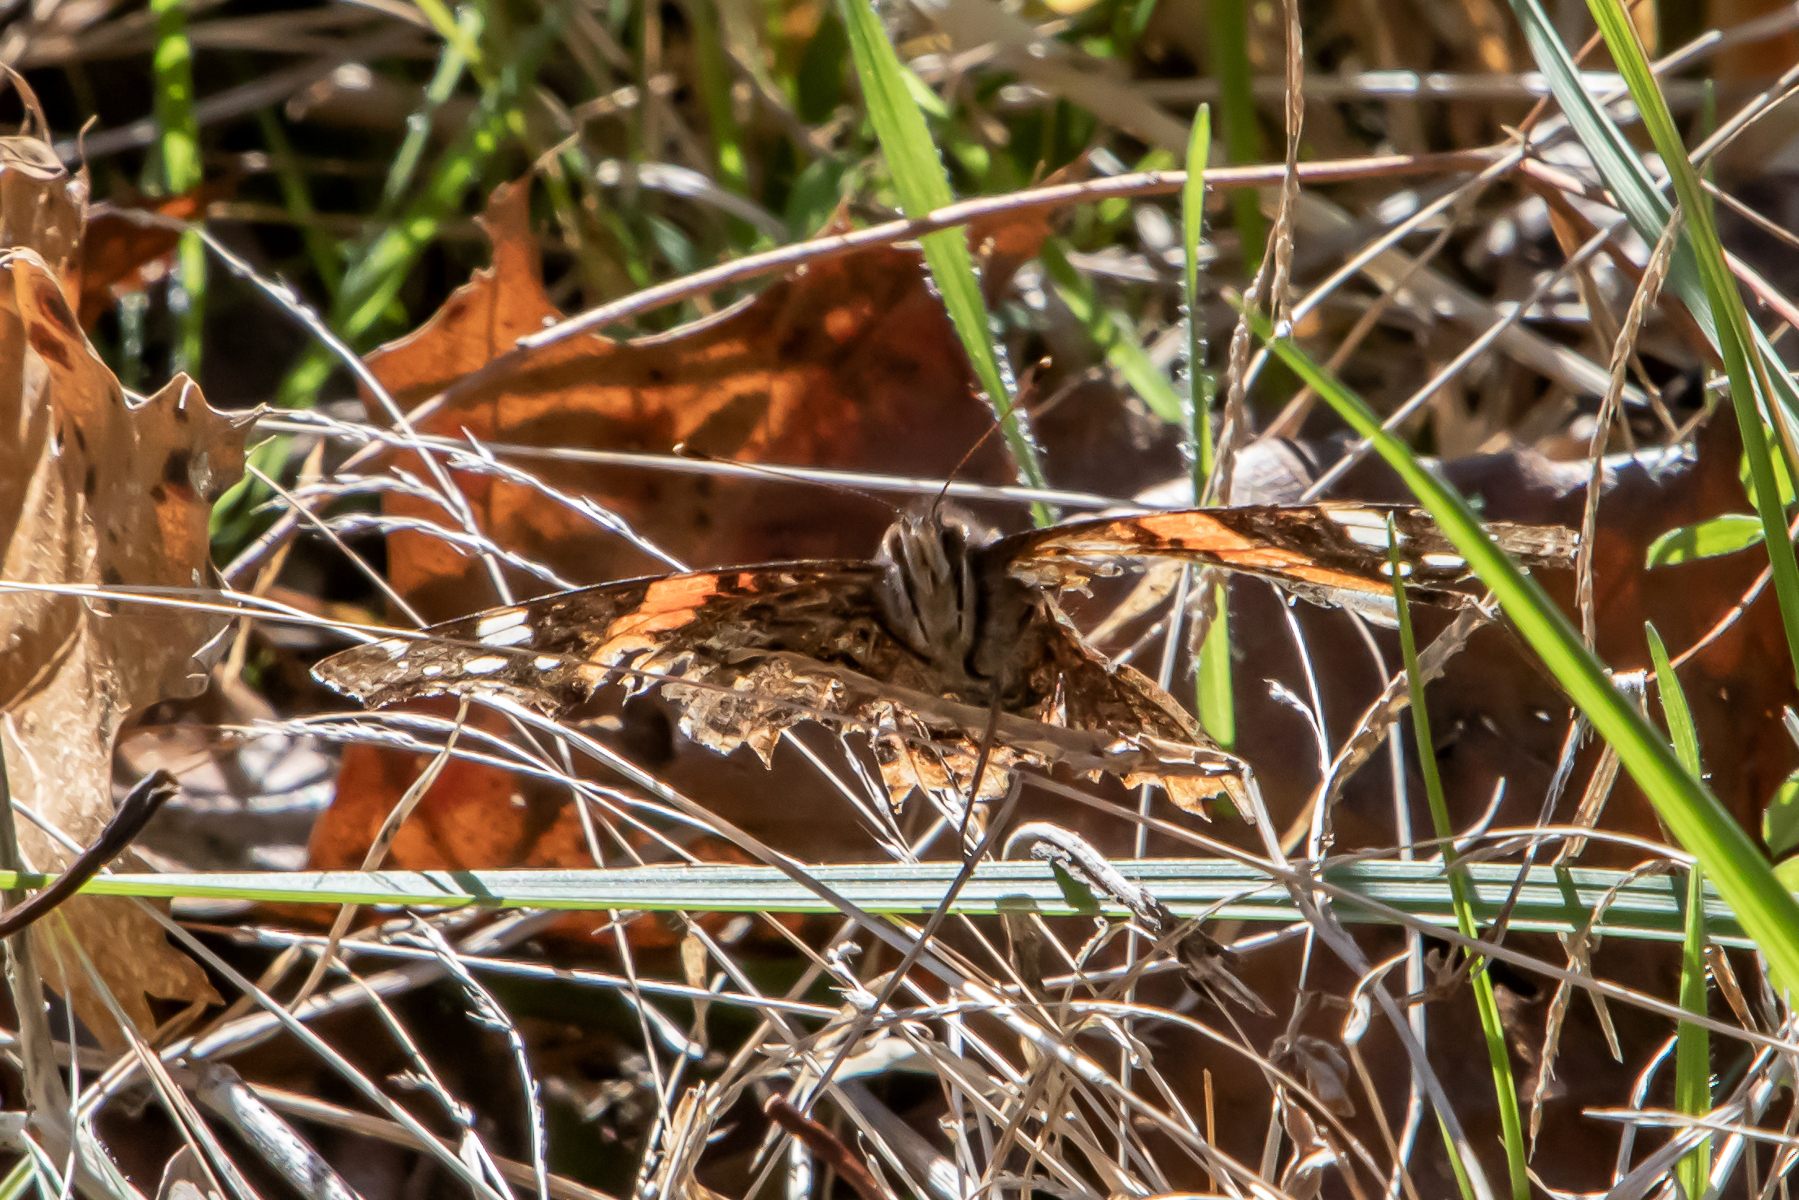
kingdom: Animalia
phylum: Arthropoda
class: Insecta
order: Lepidoptera
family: Nymphalidae
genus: Vanessa
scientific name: Vanessa atalanta
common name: Red admiral
